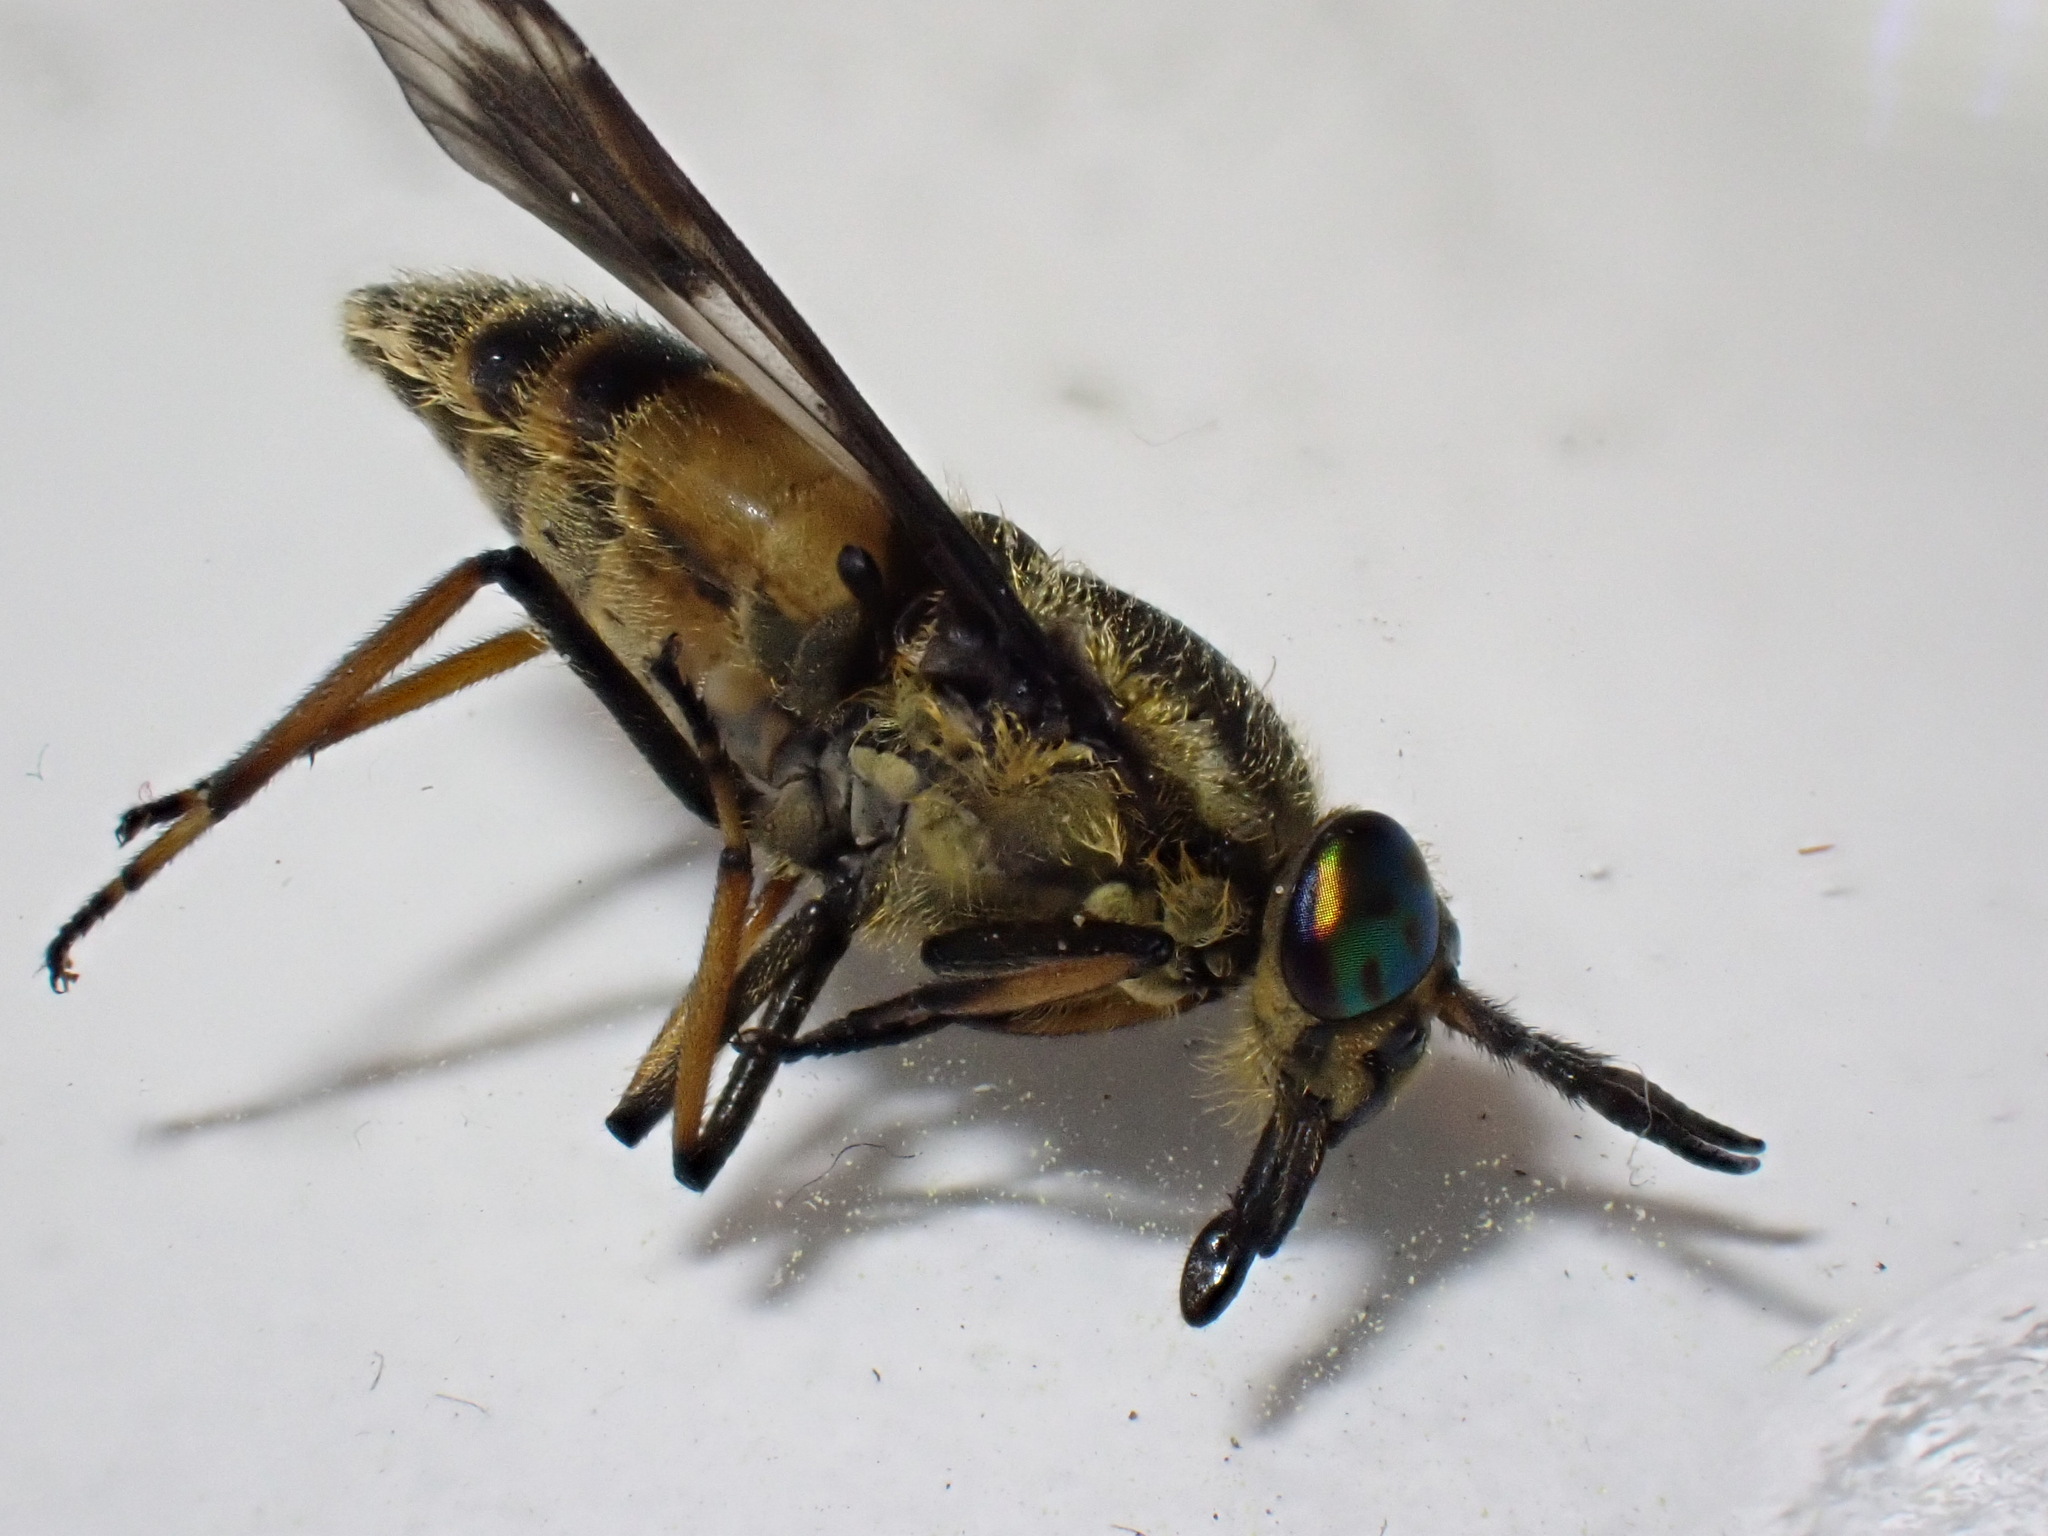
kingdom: Animalia
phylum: Arthropoda
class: Insecta
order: Diptera
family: Tabanidae
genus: Chrysops
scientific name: Chrysops relictus
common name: Twin-lobed deerfly
